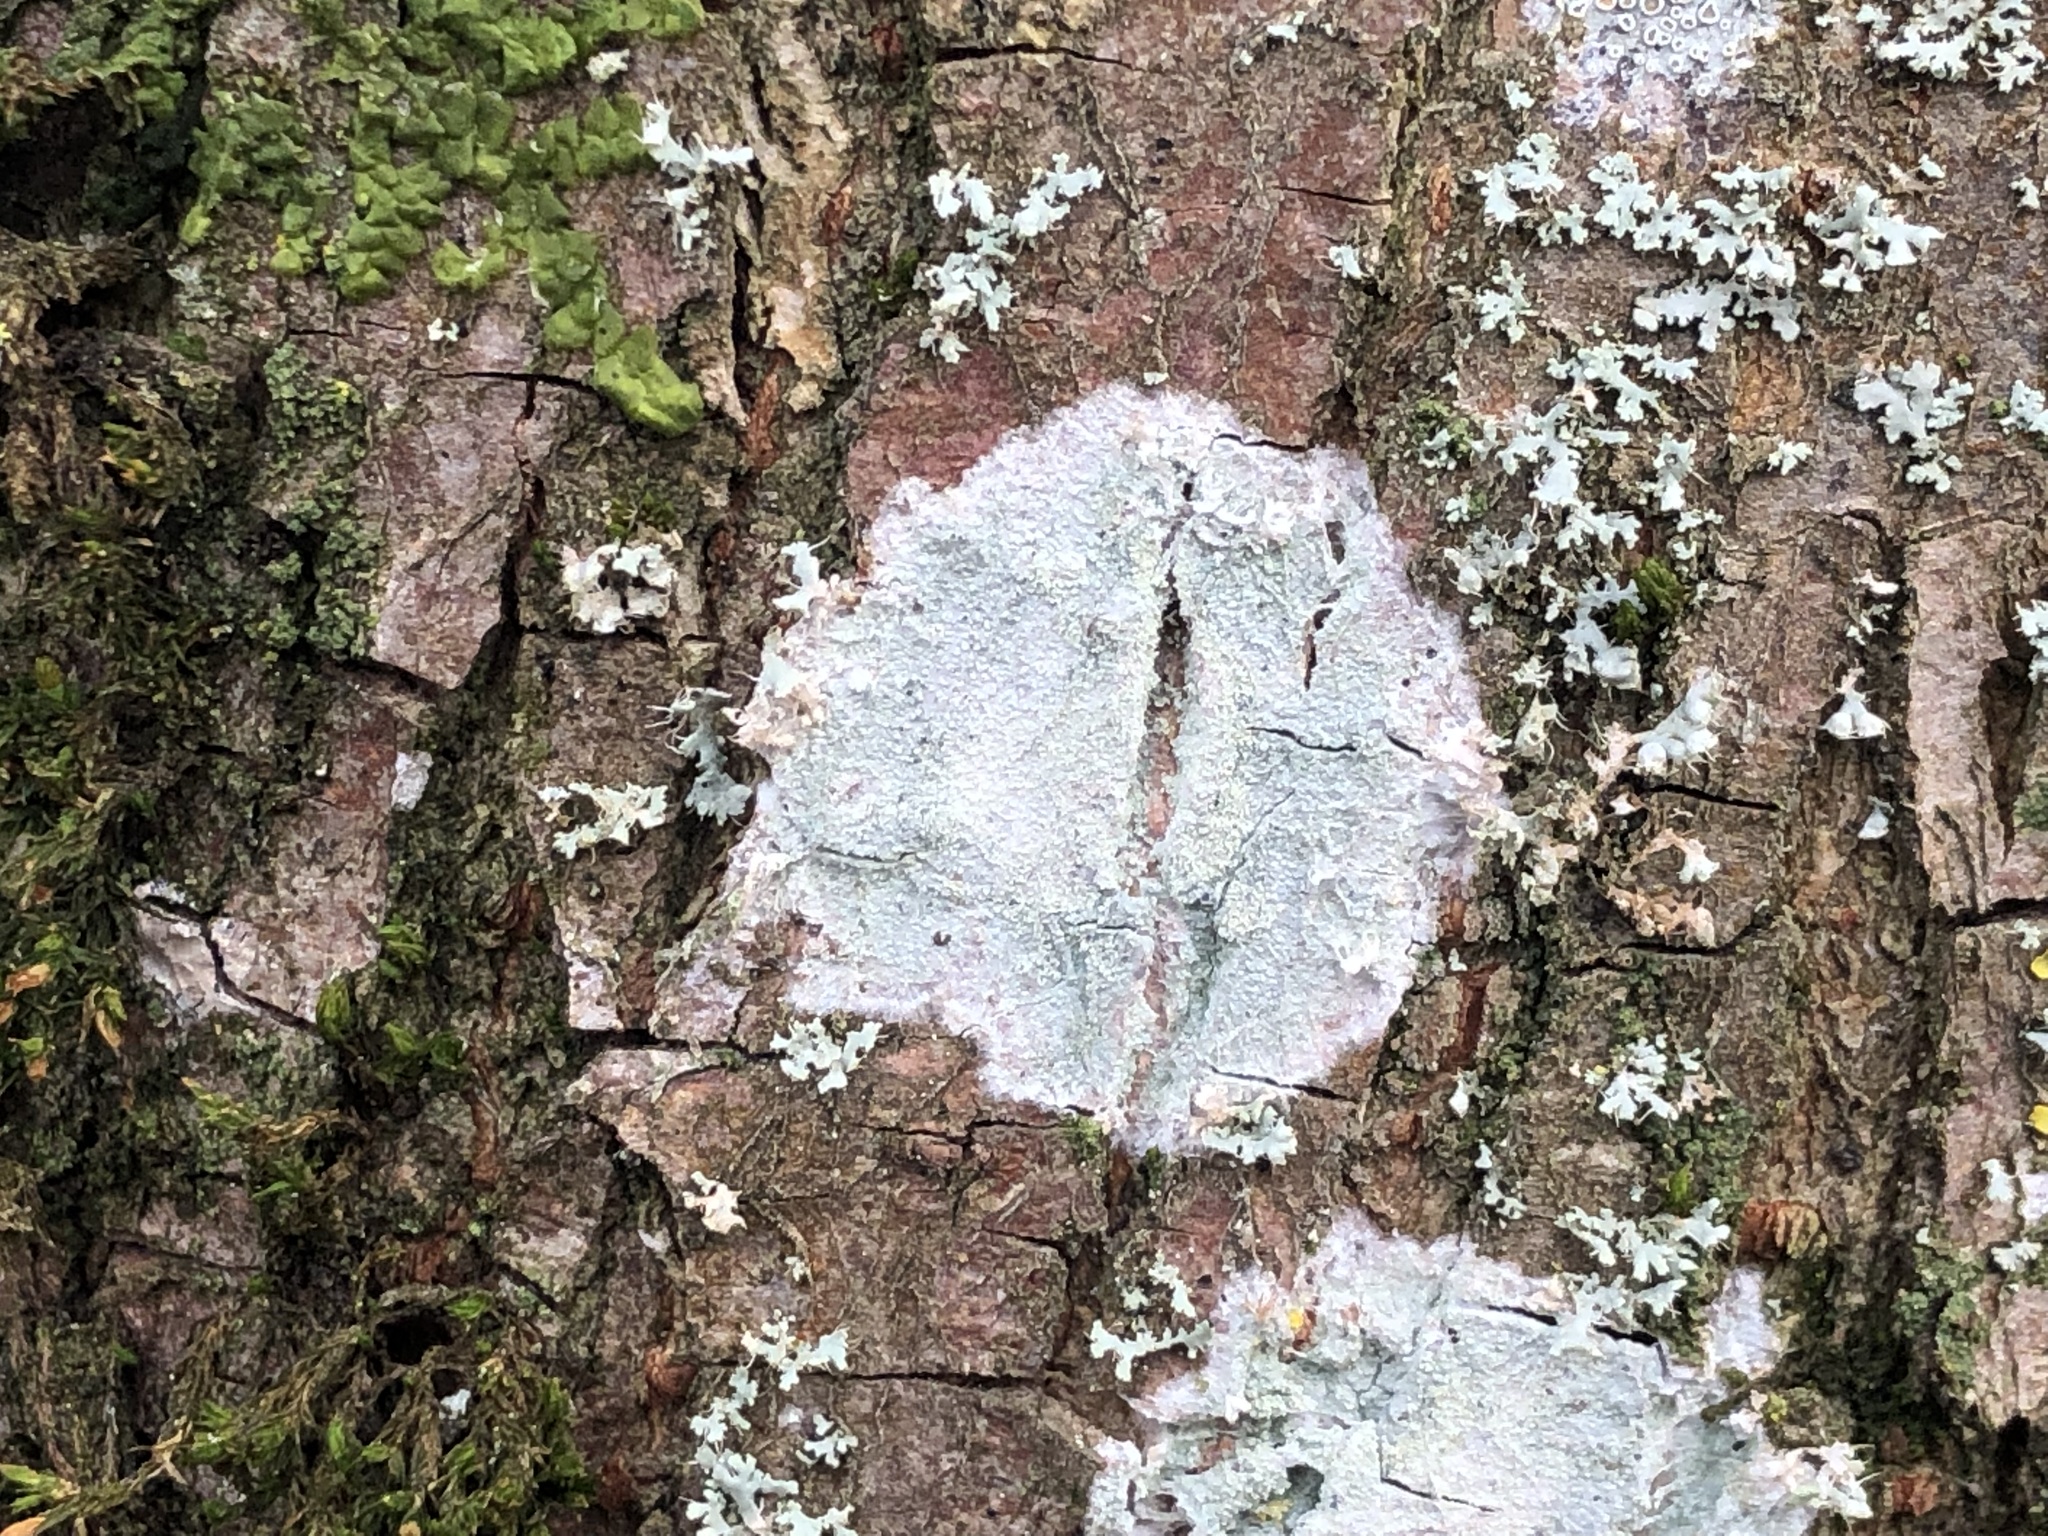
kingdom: Fungi
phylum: Ascomycota
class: Lecanoromycetes
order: Ostropales
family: Phlyctidaceae
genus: Phlyctis
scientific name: Phlyctis argena
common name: Whitewash lichen
